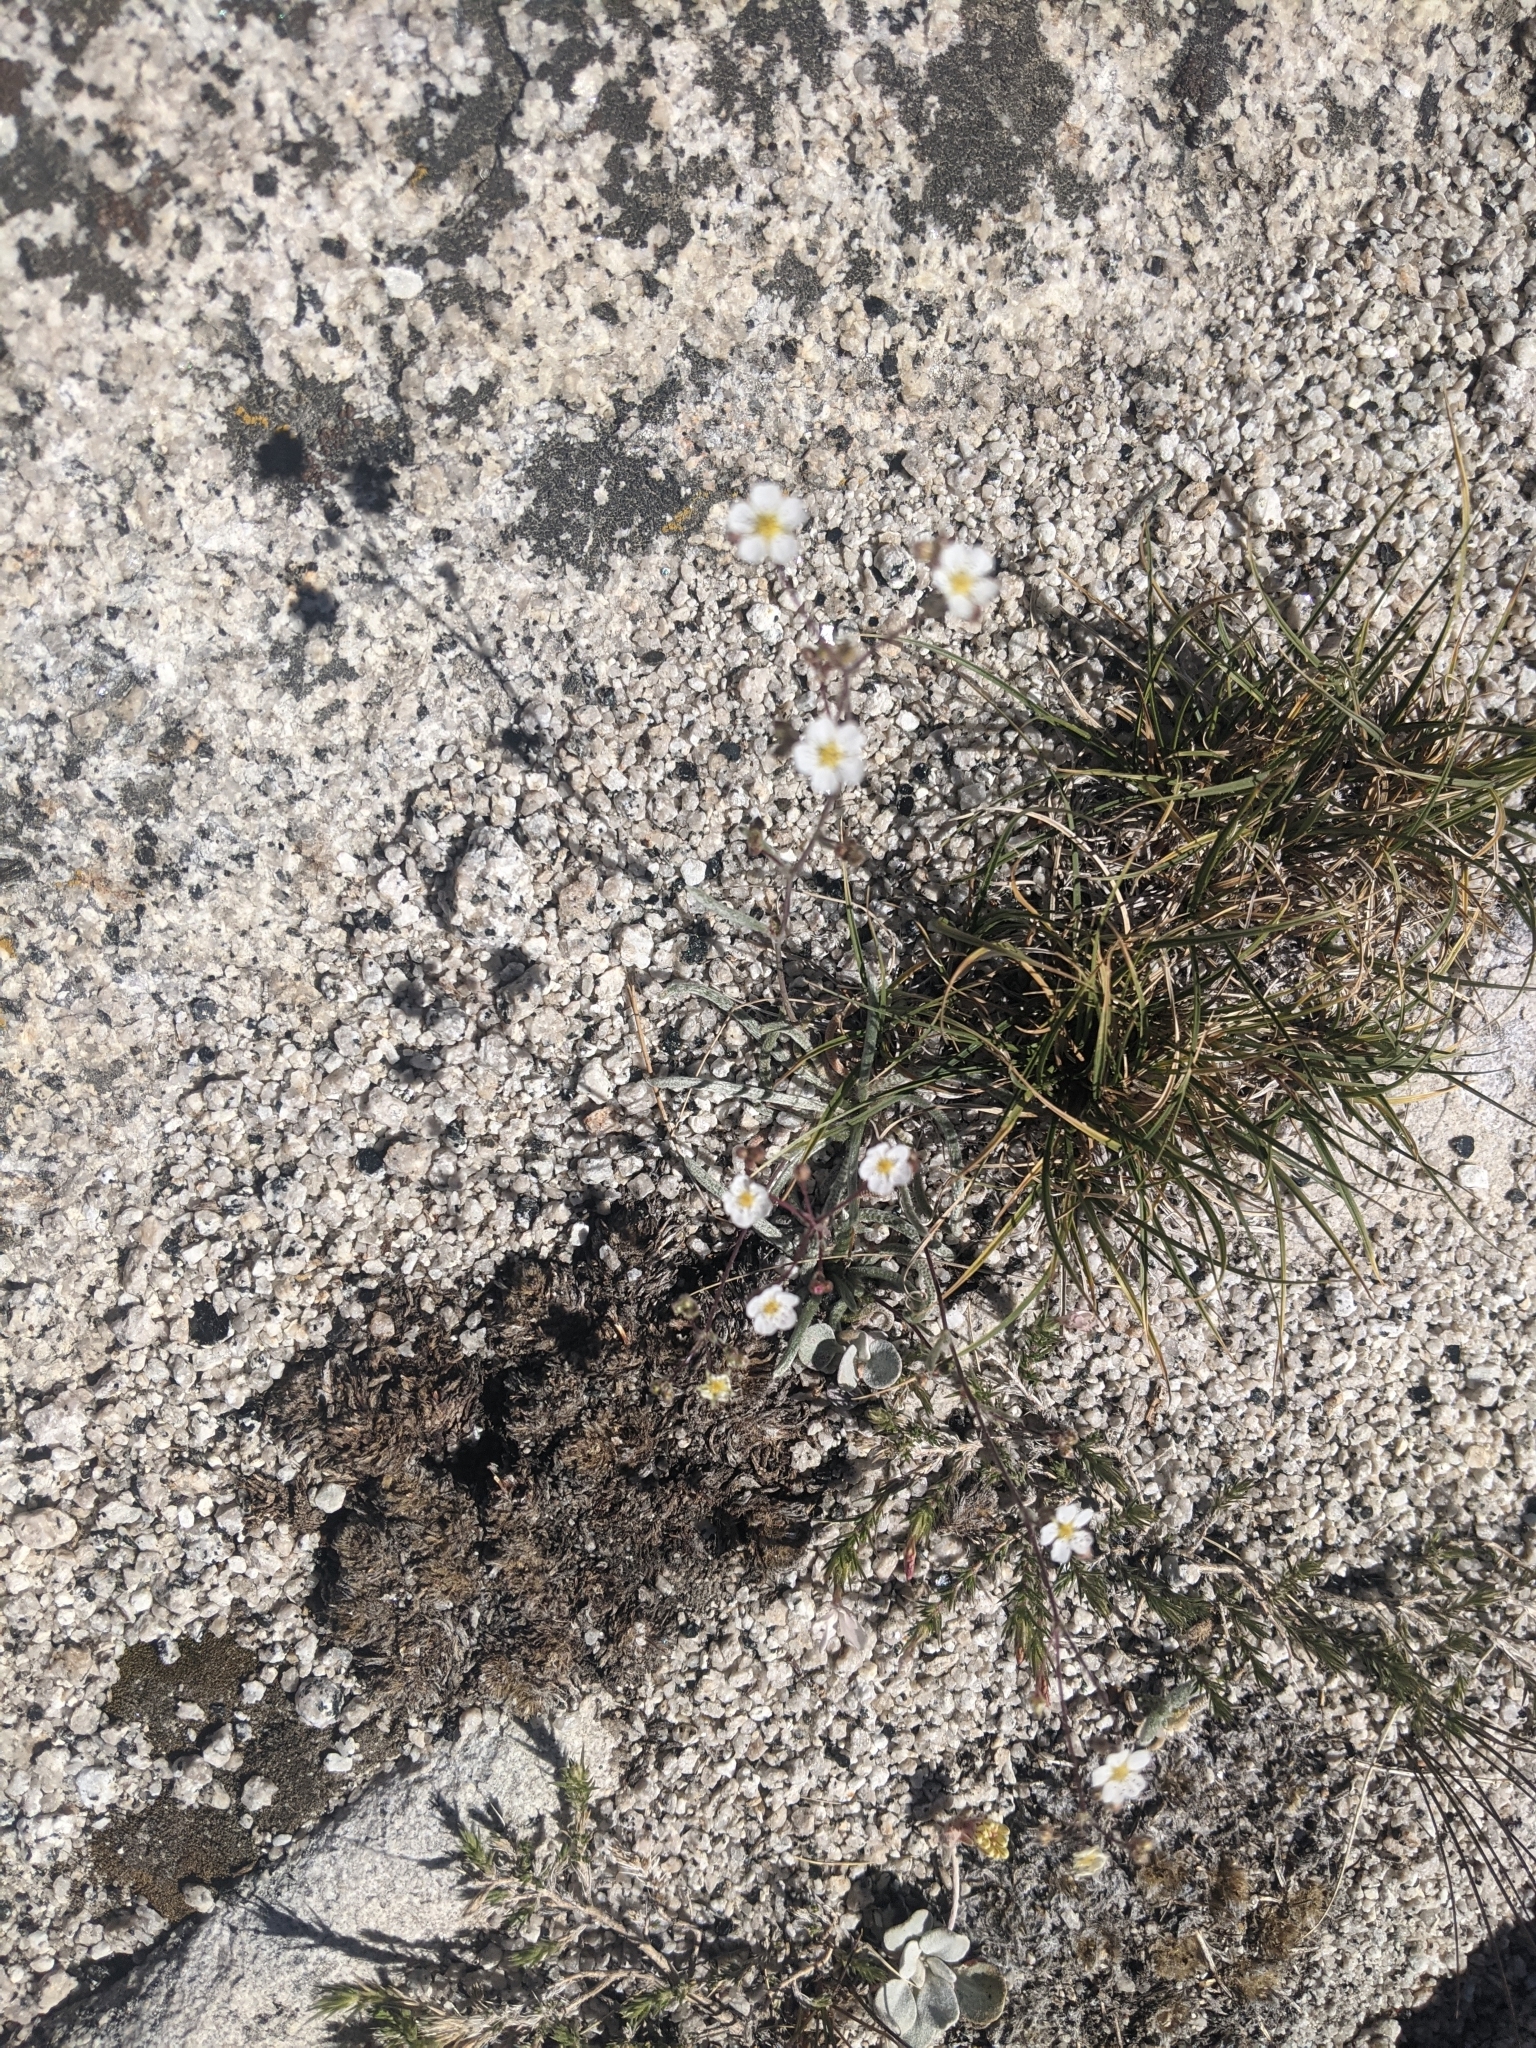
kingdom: Plantae
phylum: Tracheophyta
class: Magnoliopsida
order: Rosales
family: Rosaceae
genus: Potentilla
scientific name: Potentilla santolinoides
